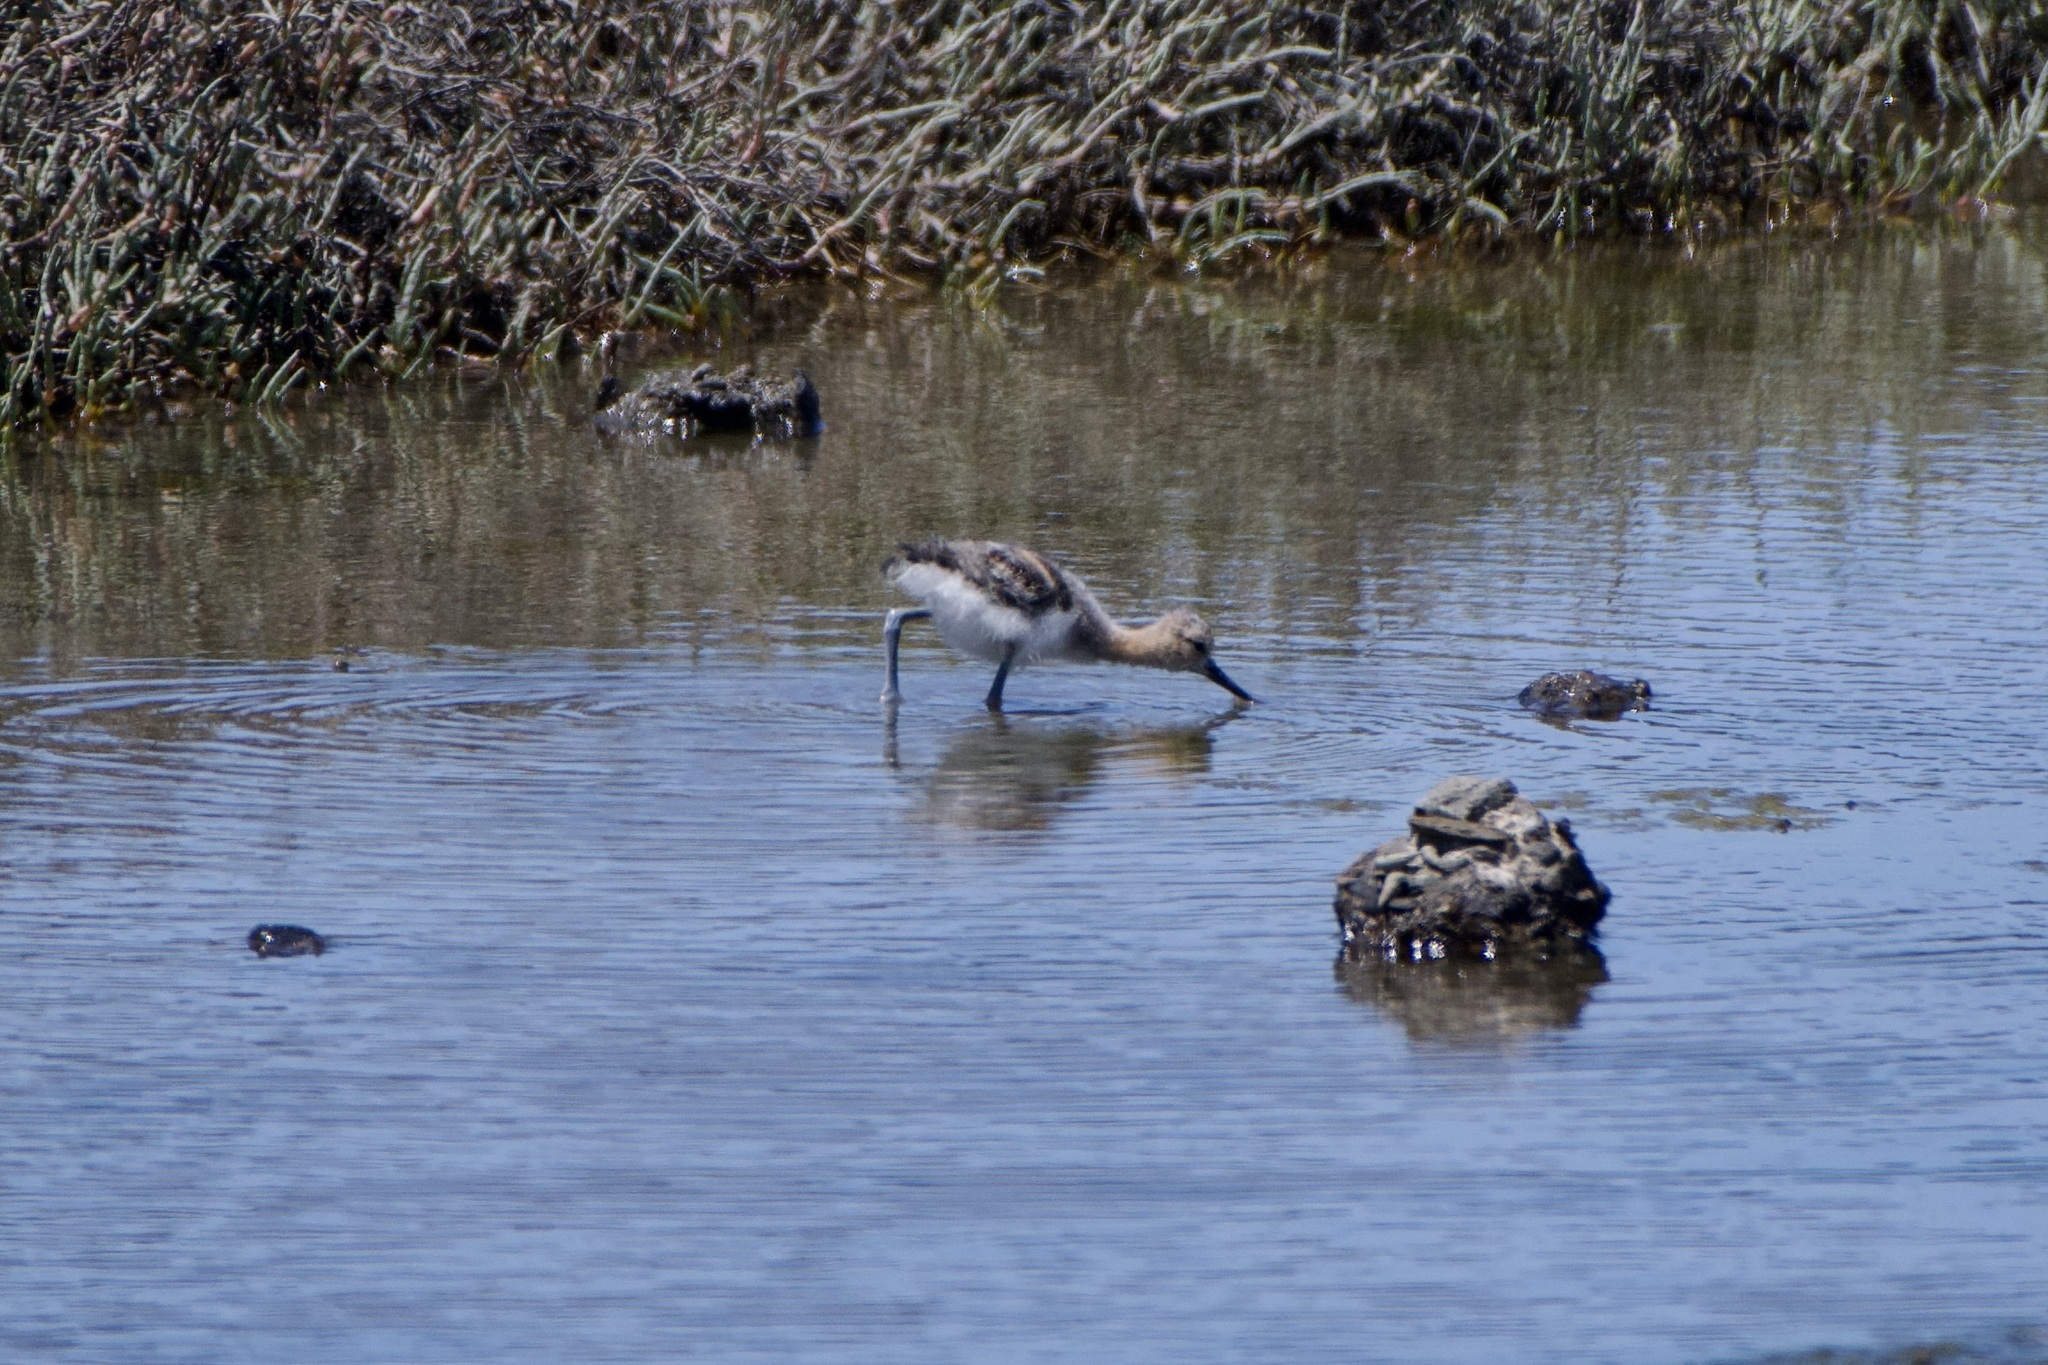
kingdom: Animalia
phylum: Chordata
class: Aves
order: Charadriiformes
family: Recurvirostridae
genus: Recurvirostra
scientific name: Recurvirostra americana
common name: American avocet
